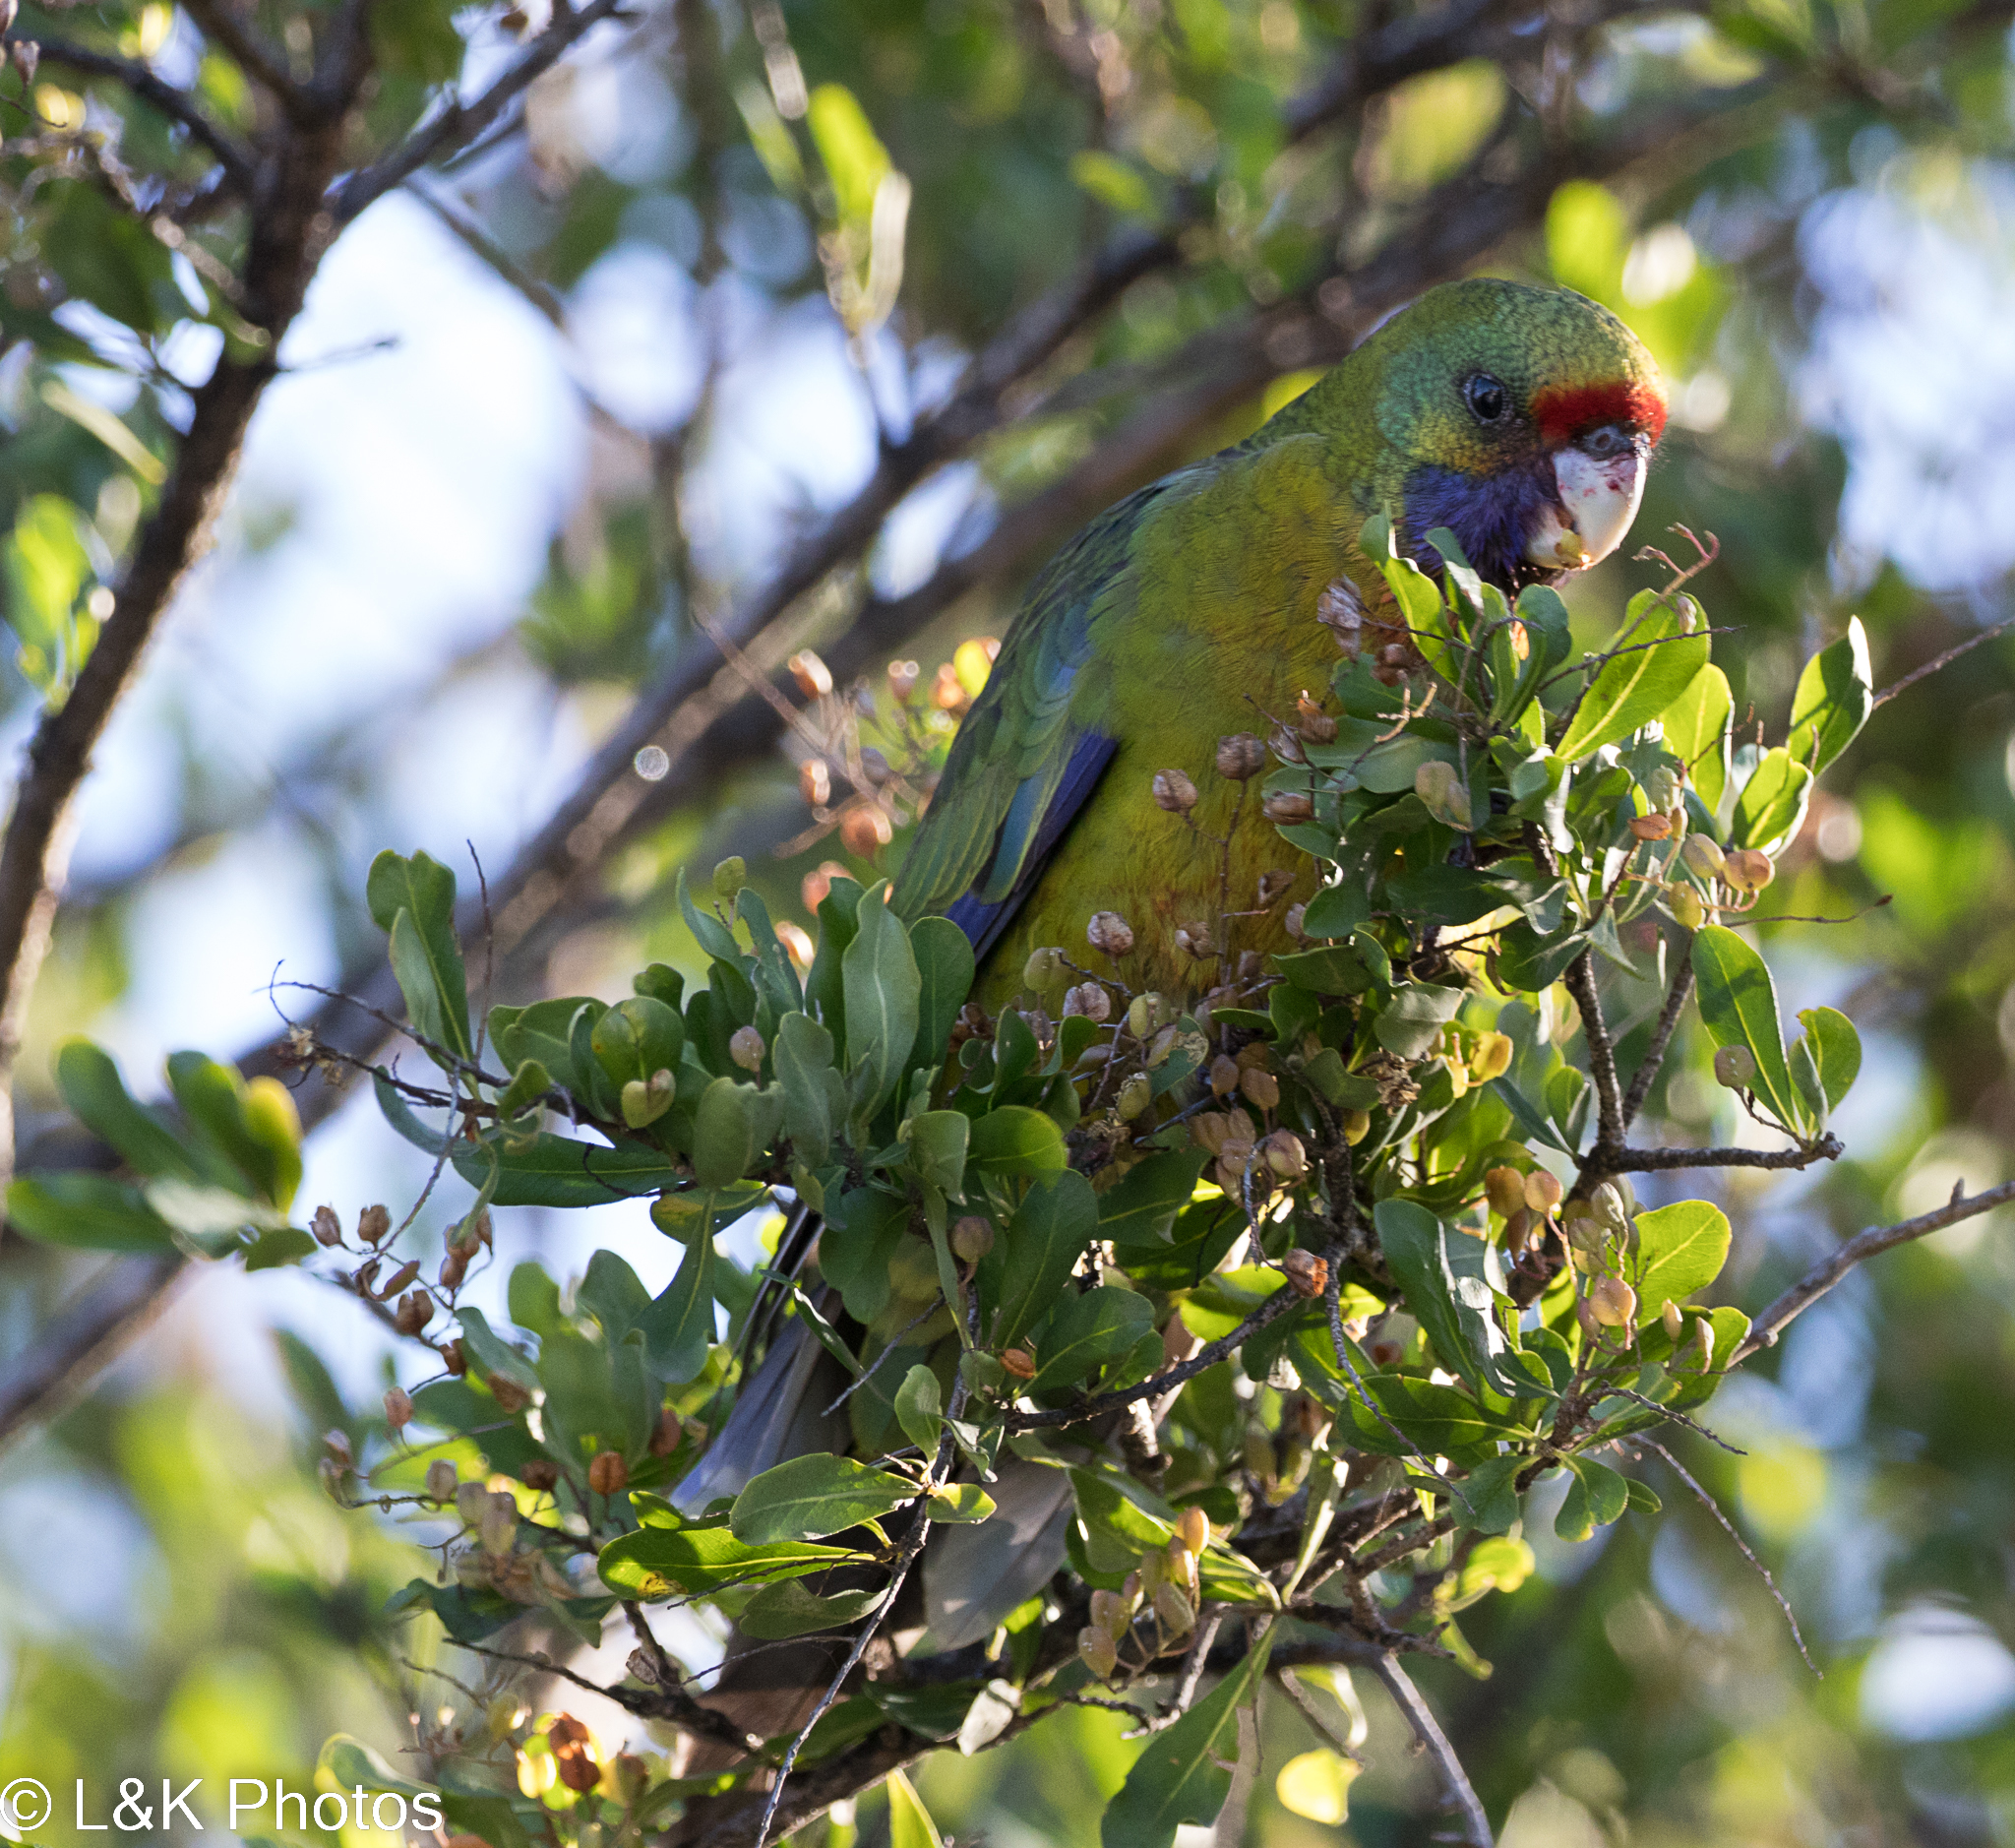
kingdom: Animalia
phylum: Chordata
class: Aves
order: Psittaciformes
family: Psittacidae
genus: Platycercus
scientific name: Platycercus caledonicus
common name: Green rosella
